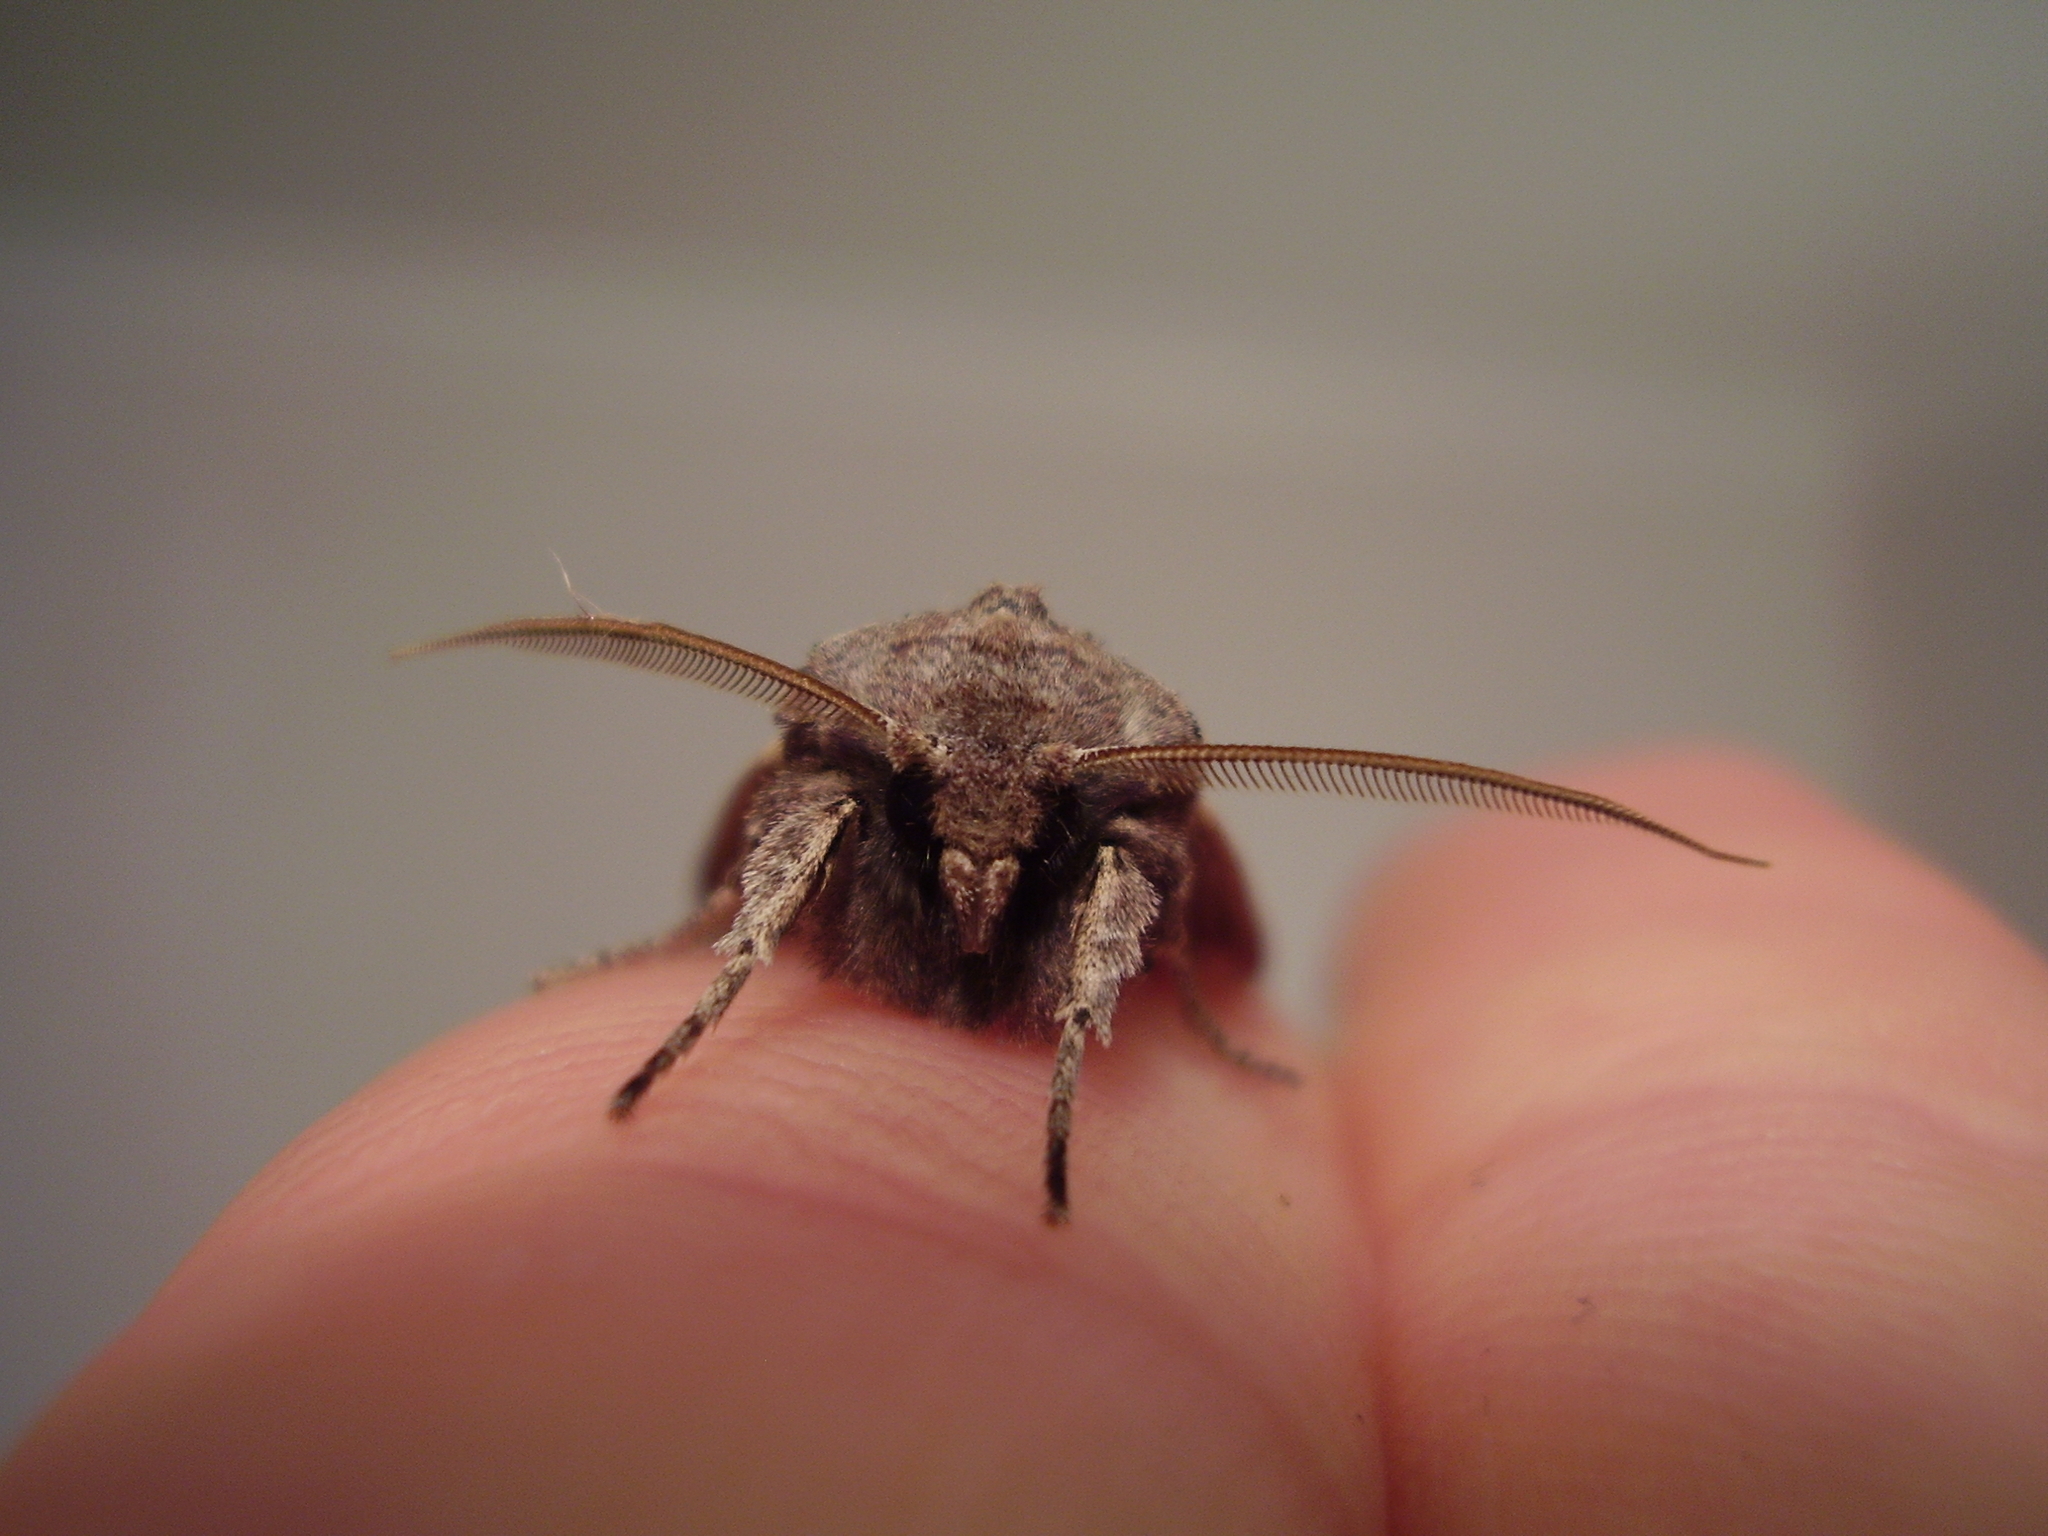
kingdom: Animalia
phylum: Arthropoda
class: Insecta
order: Lepidoptera
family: Noctuidae
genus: Ichneutica
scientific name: Ichneutica
